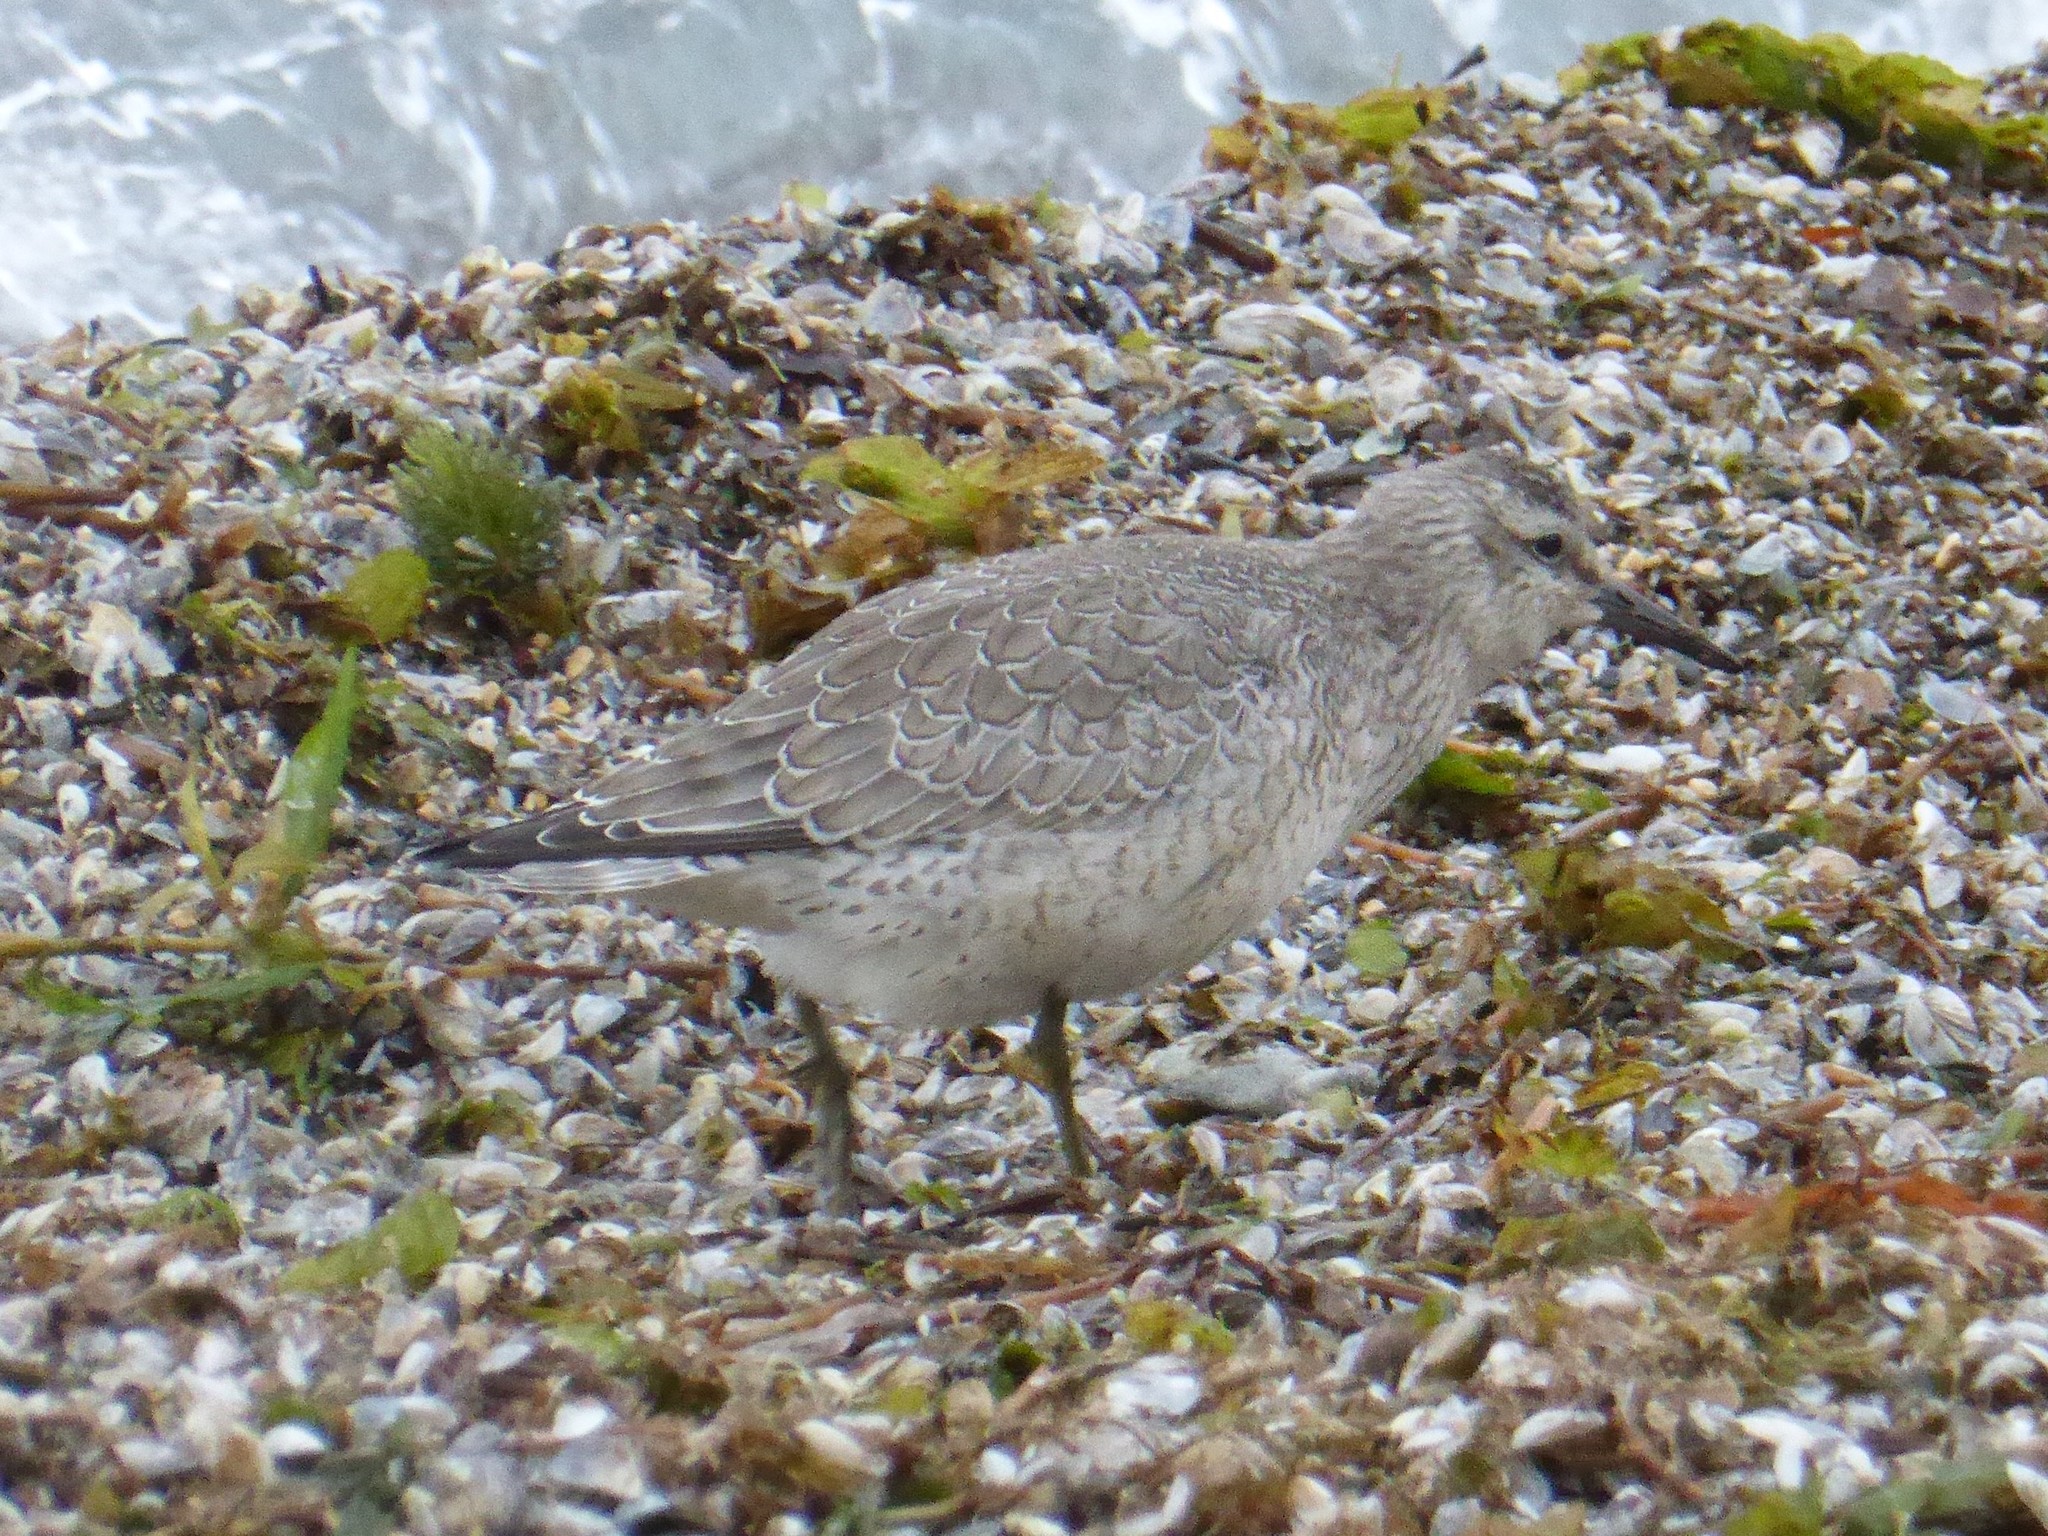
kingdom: Animalia
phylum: Chordata
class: Aves
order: Charadriiformes
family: Scolopacidae
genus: Calidris
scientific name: Calidris canutus
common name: Red knot
